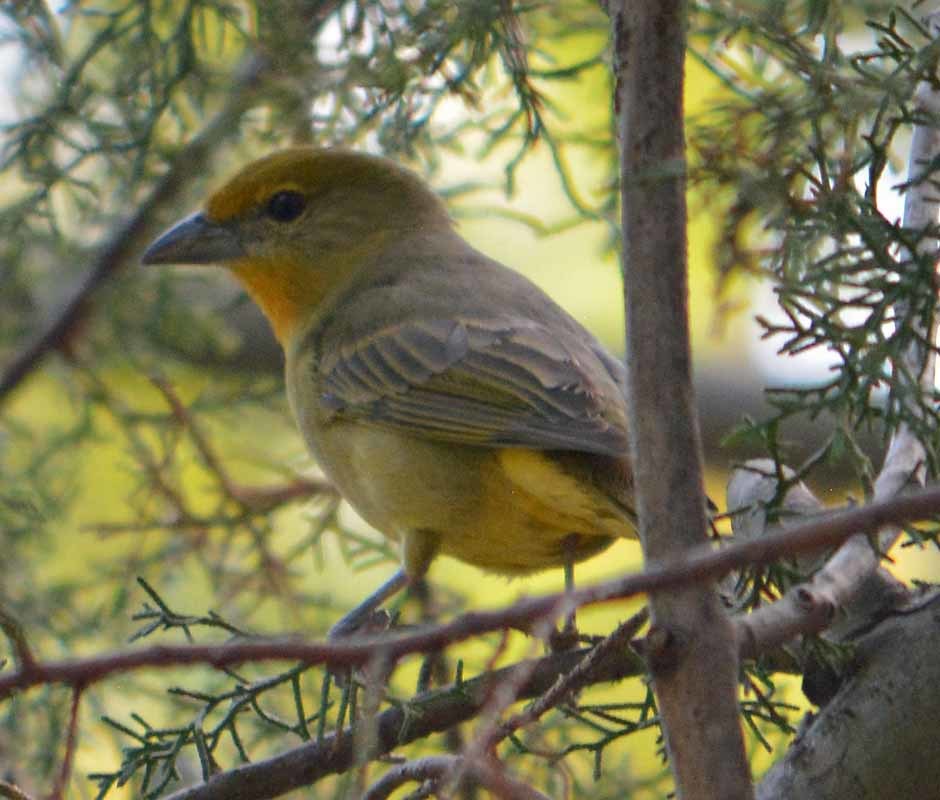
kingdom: Animalia
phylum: Chordata
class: Aves
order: Passeriformes
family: Cardinalidae
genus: Piranga
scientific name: Piranga flava
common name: Red tanager
